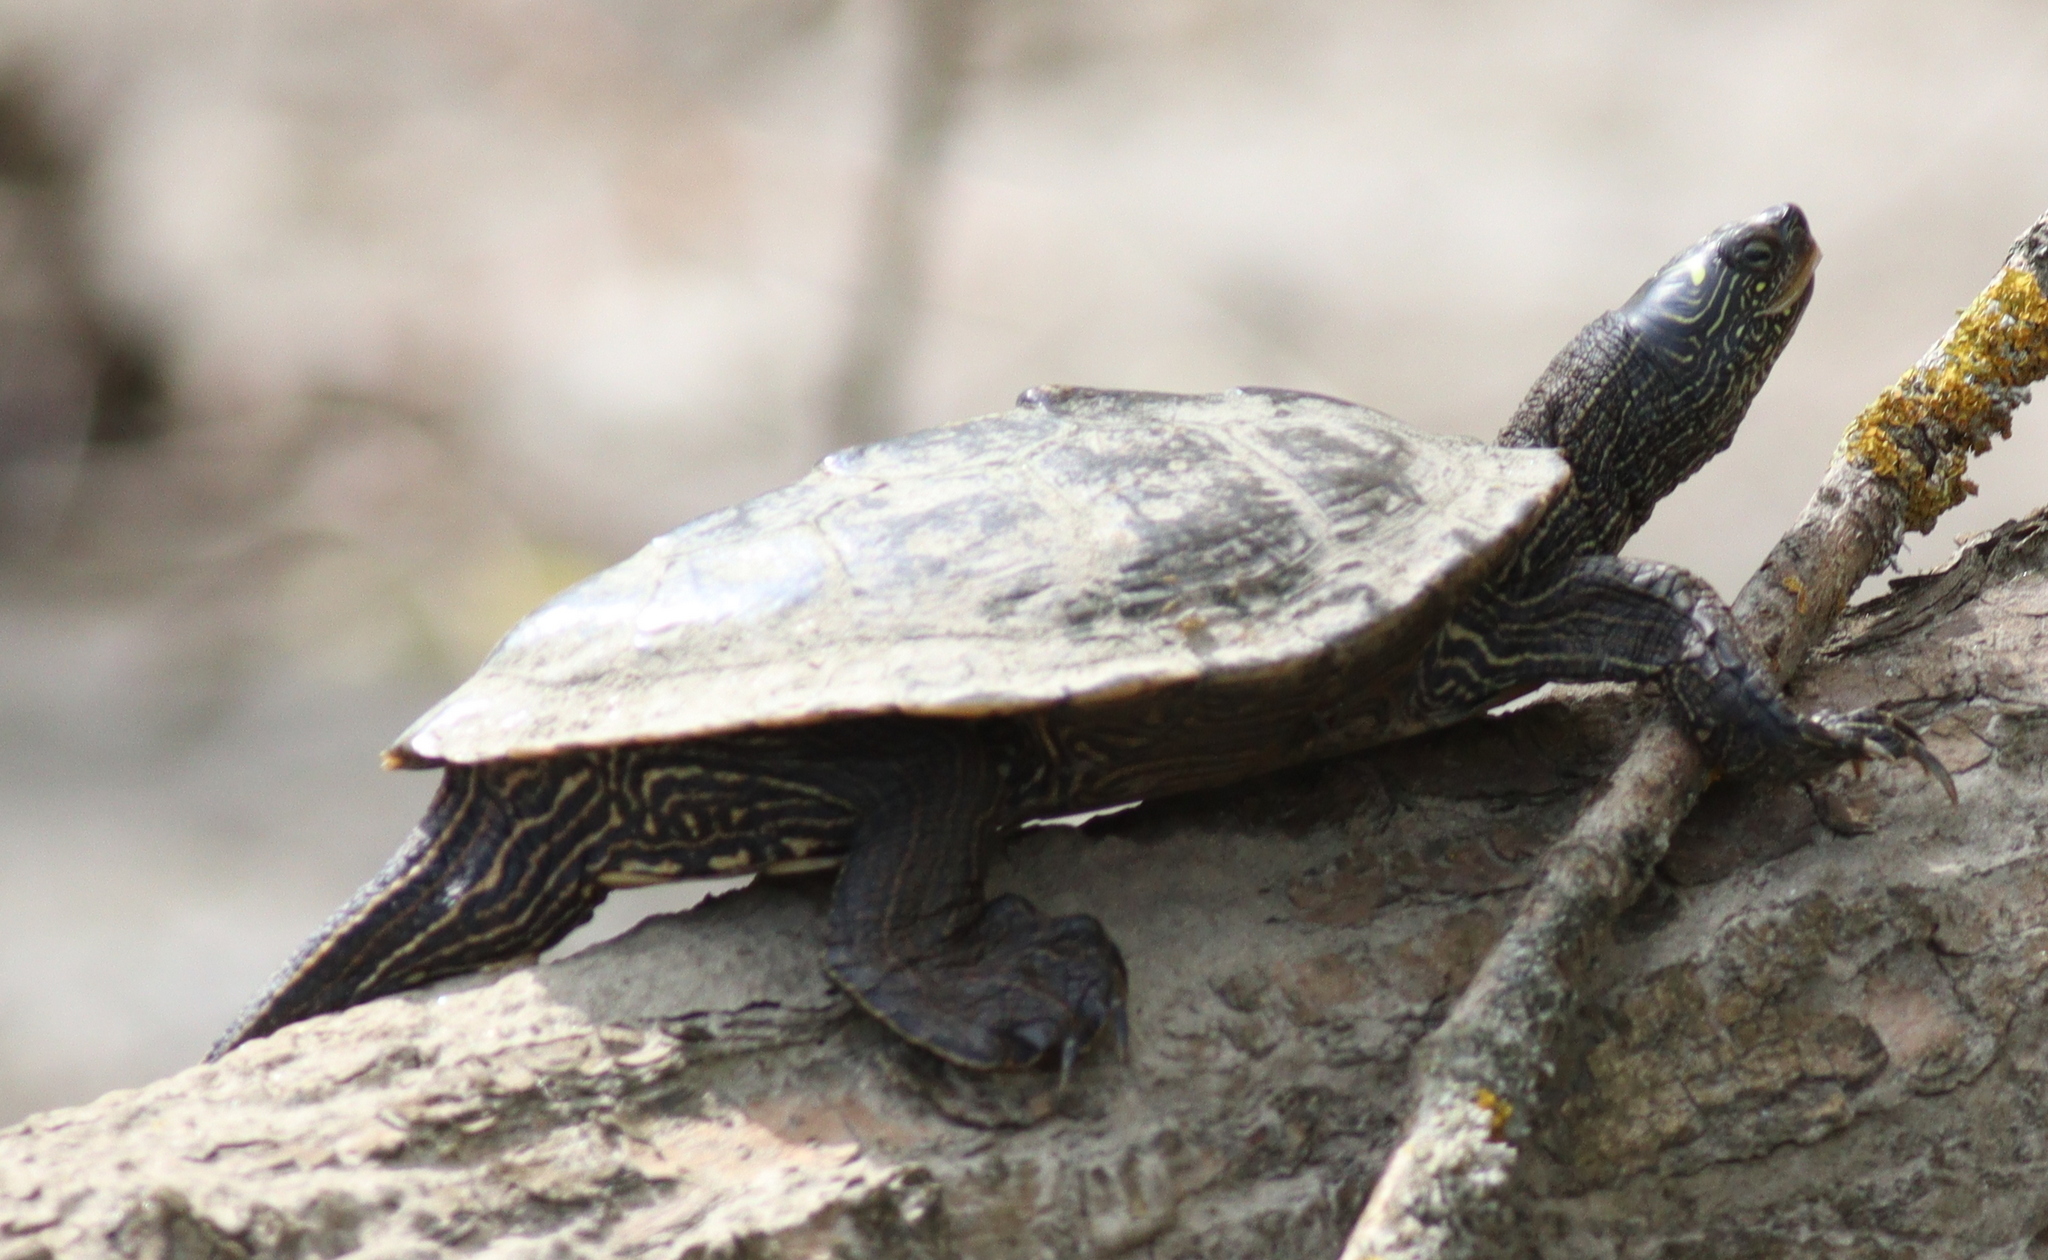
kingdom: Animalia
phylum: Chordata
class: Testudines
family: Emydidae
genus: Graptemys
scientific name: Graptemys pseudogeographica
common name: False map turtle
